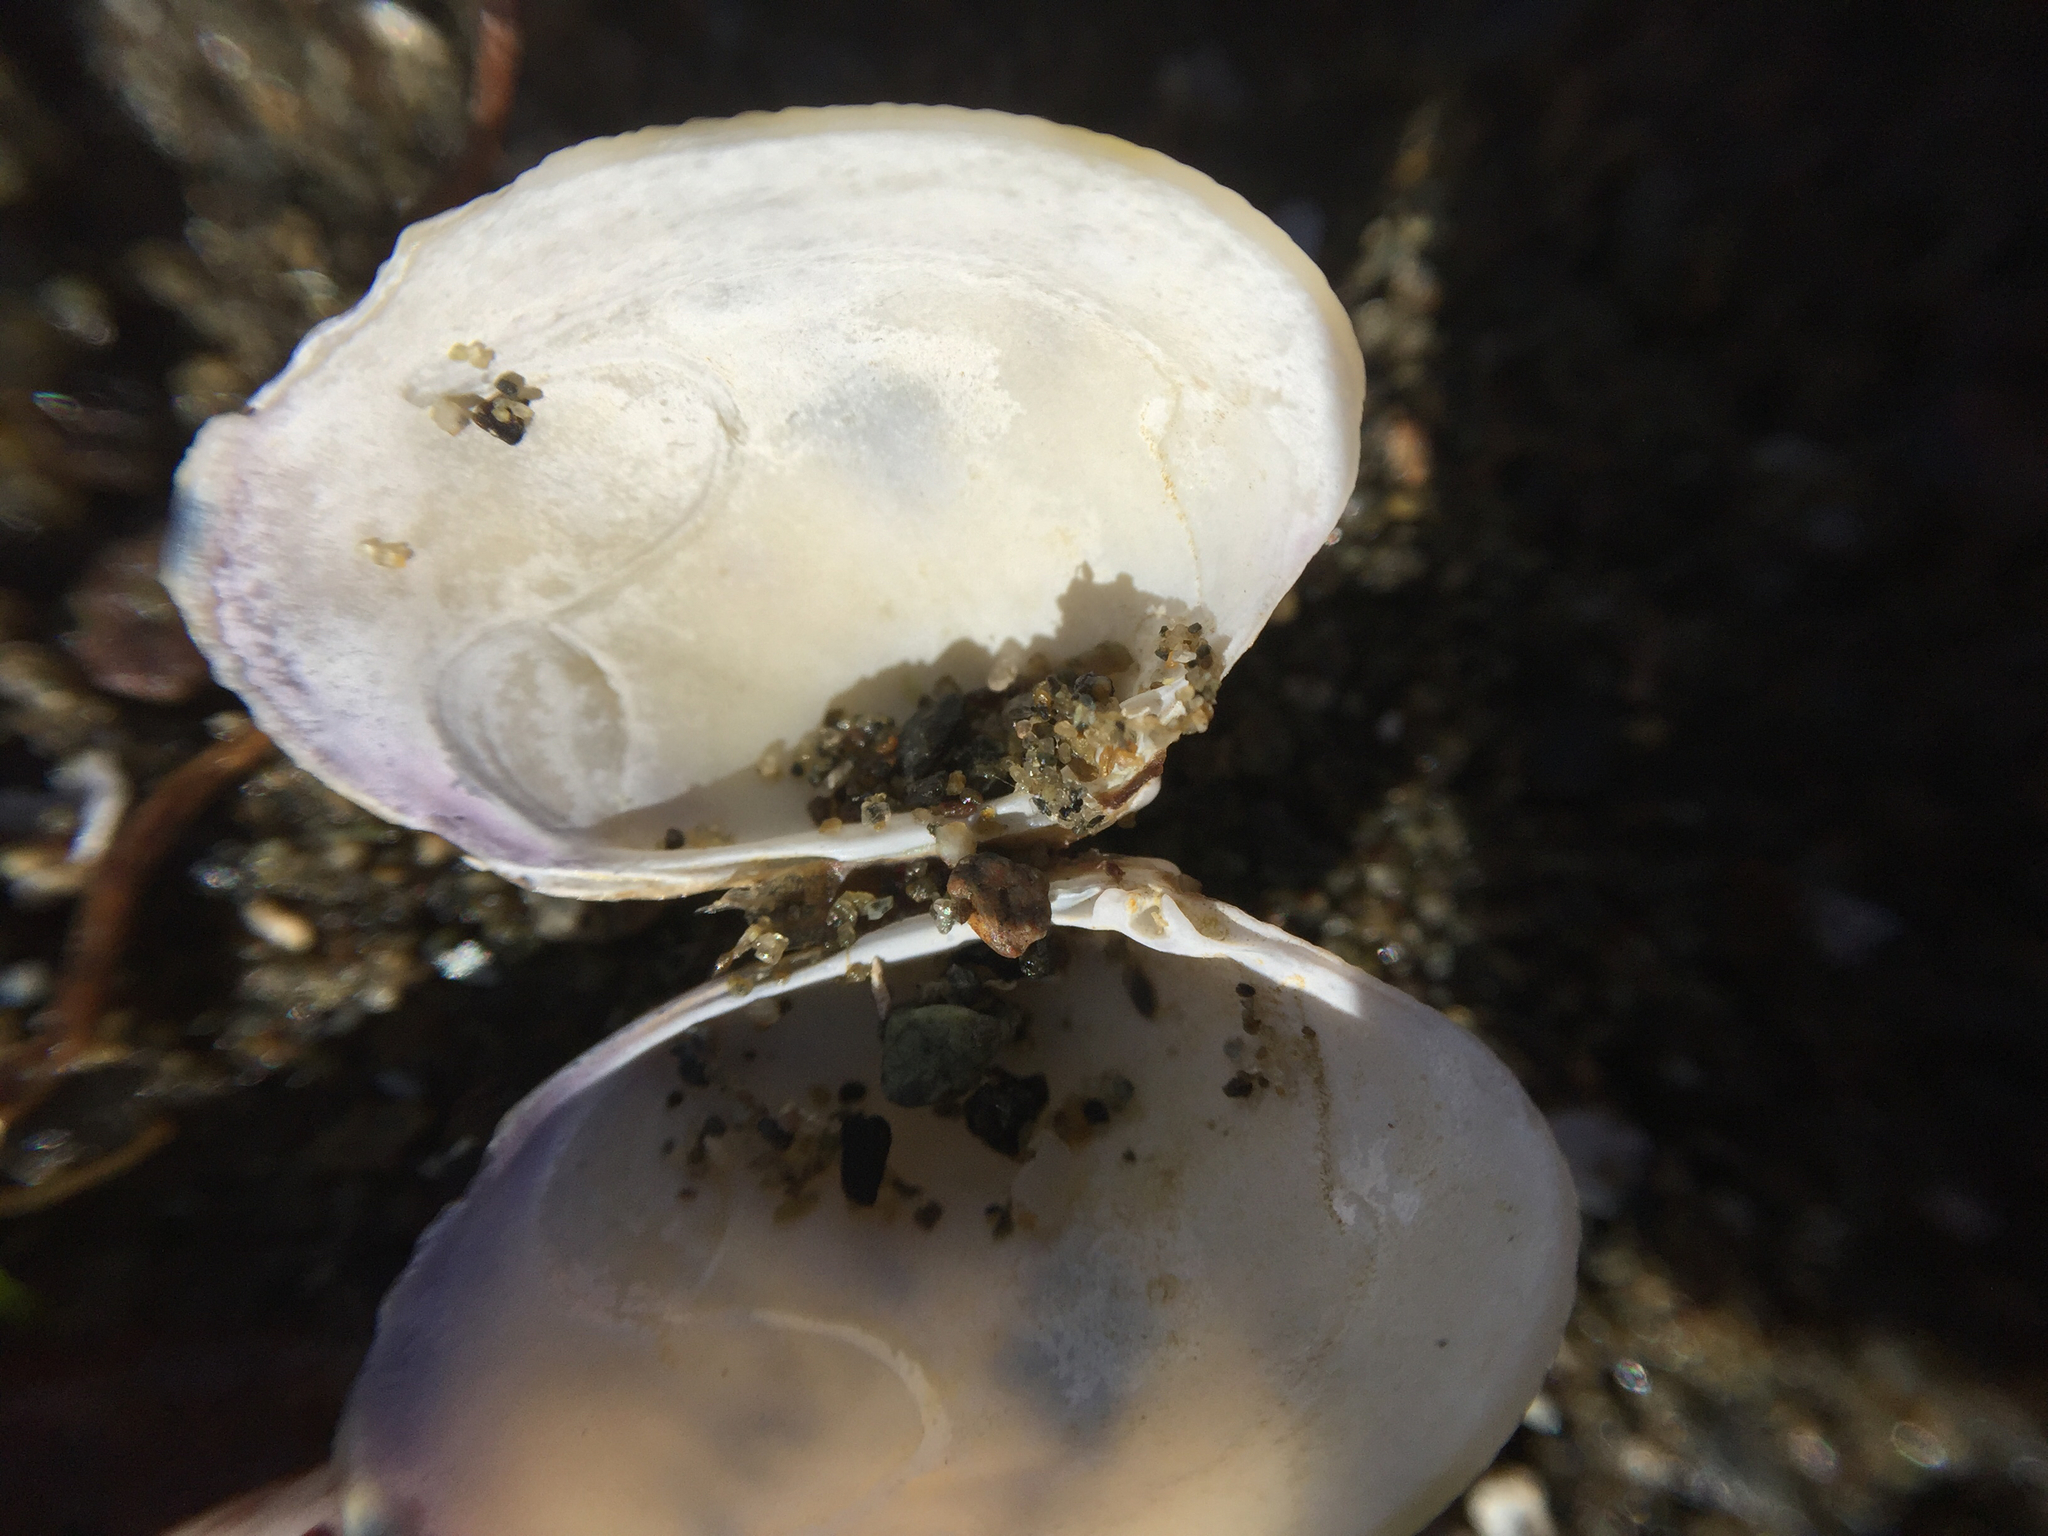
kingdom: Animalia
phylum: Mollusca
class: Bivalvia
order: Venerida
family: Veneridae
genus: Ruditapes
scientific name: Ruditapes philippinarum
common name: Manila clam
